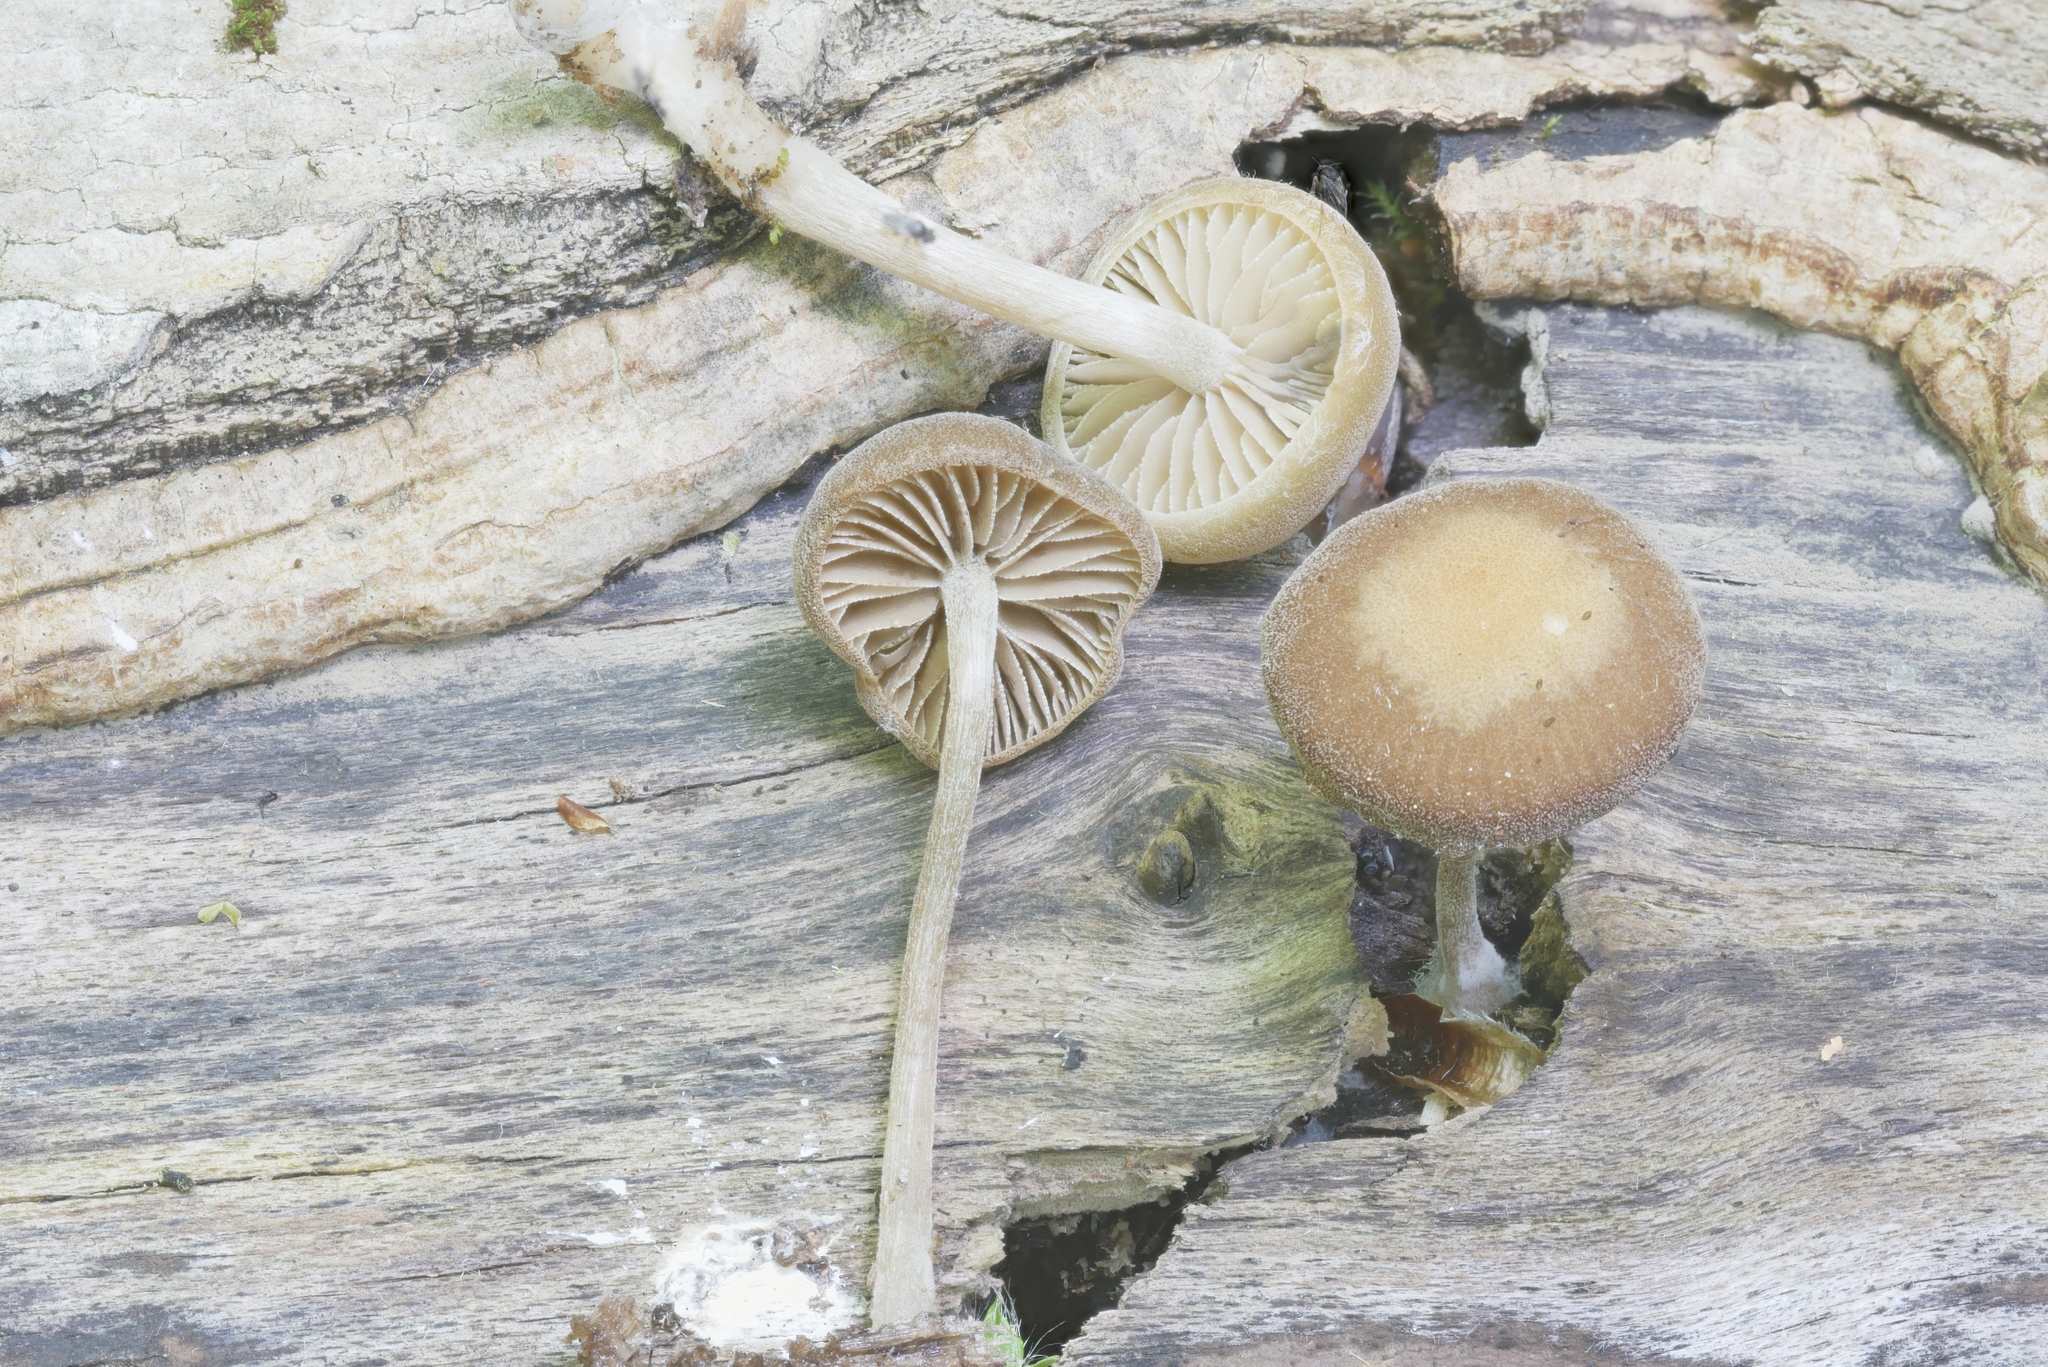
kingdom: Fungi
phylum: Basidiomycota
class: Agaricomycetes
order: Agaricales
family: Crepidotaceae
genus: Simocybe
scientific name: Simocybe centunculus
